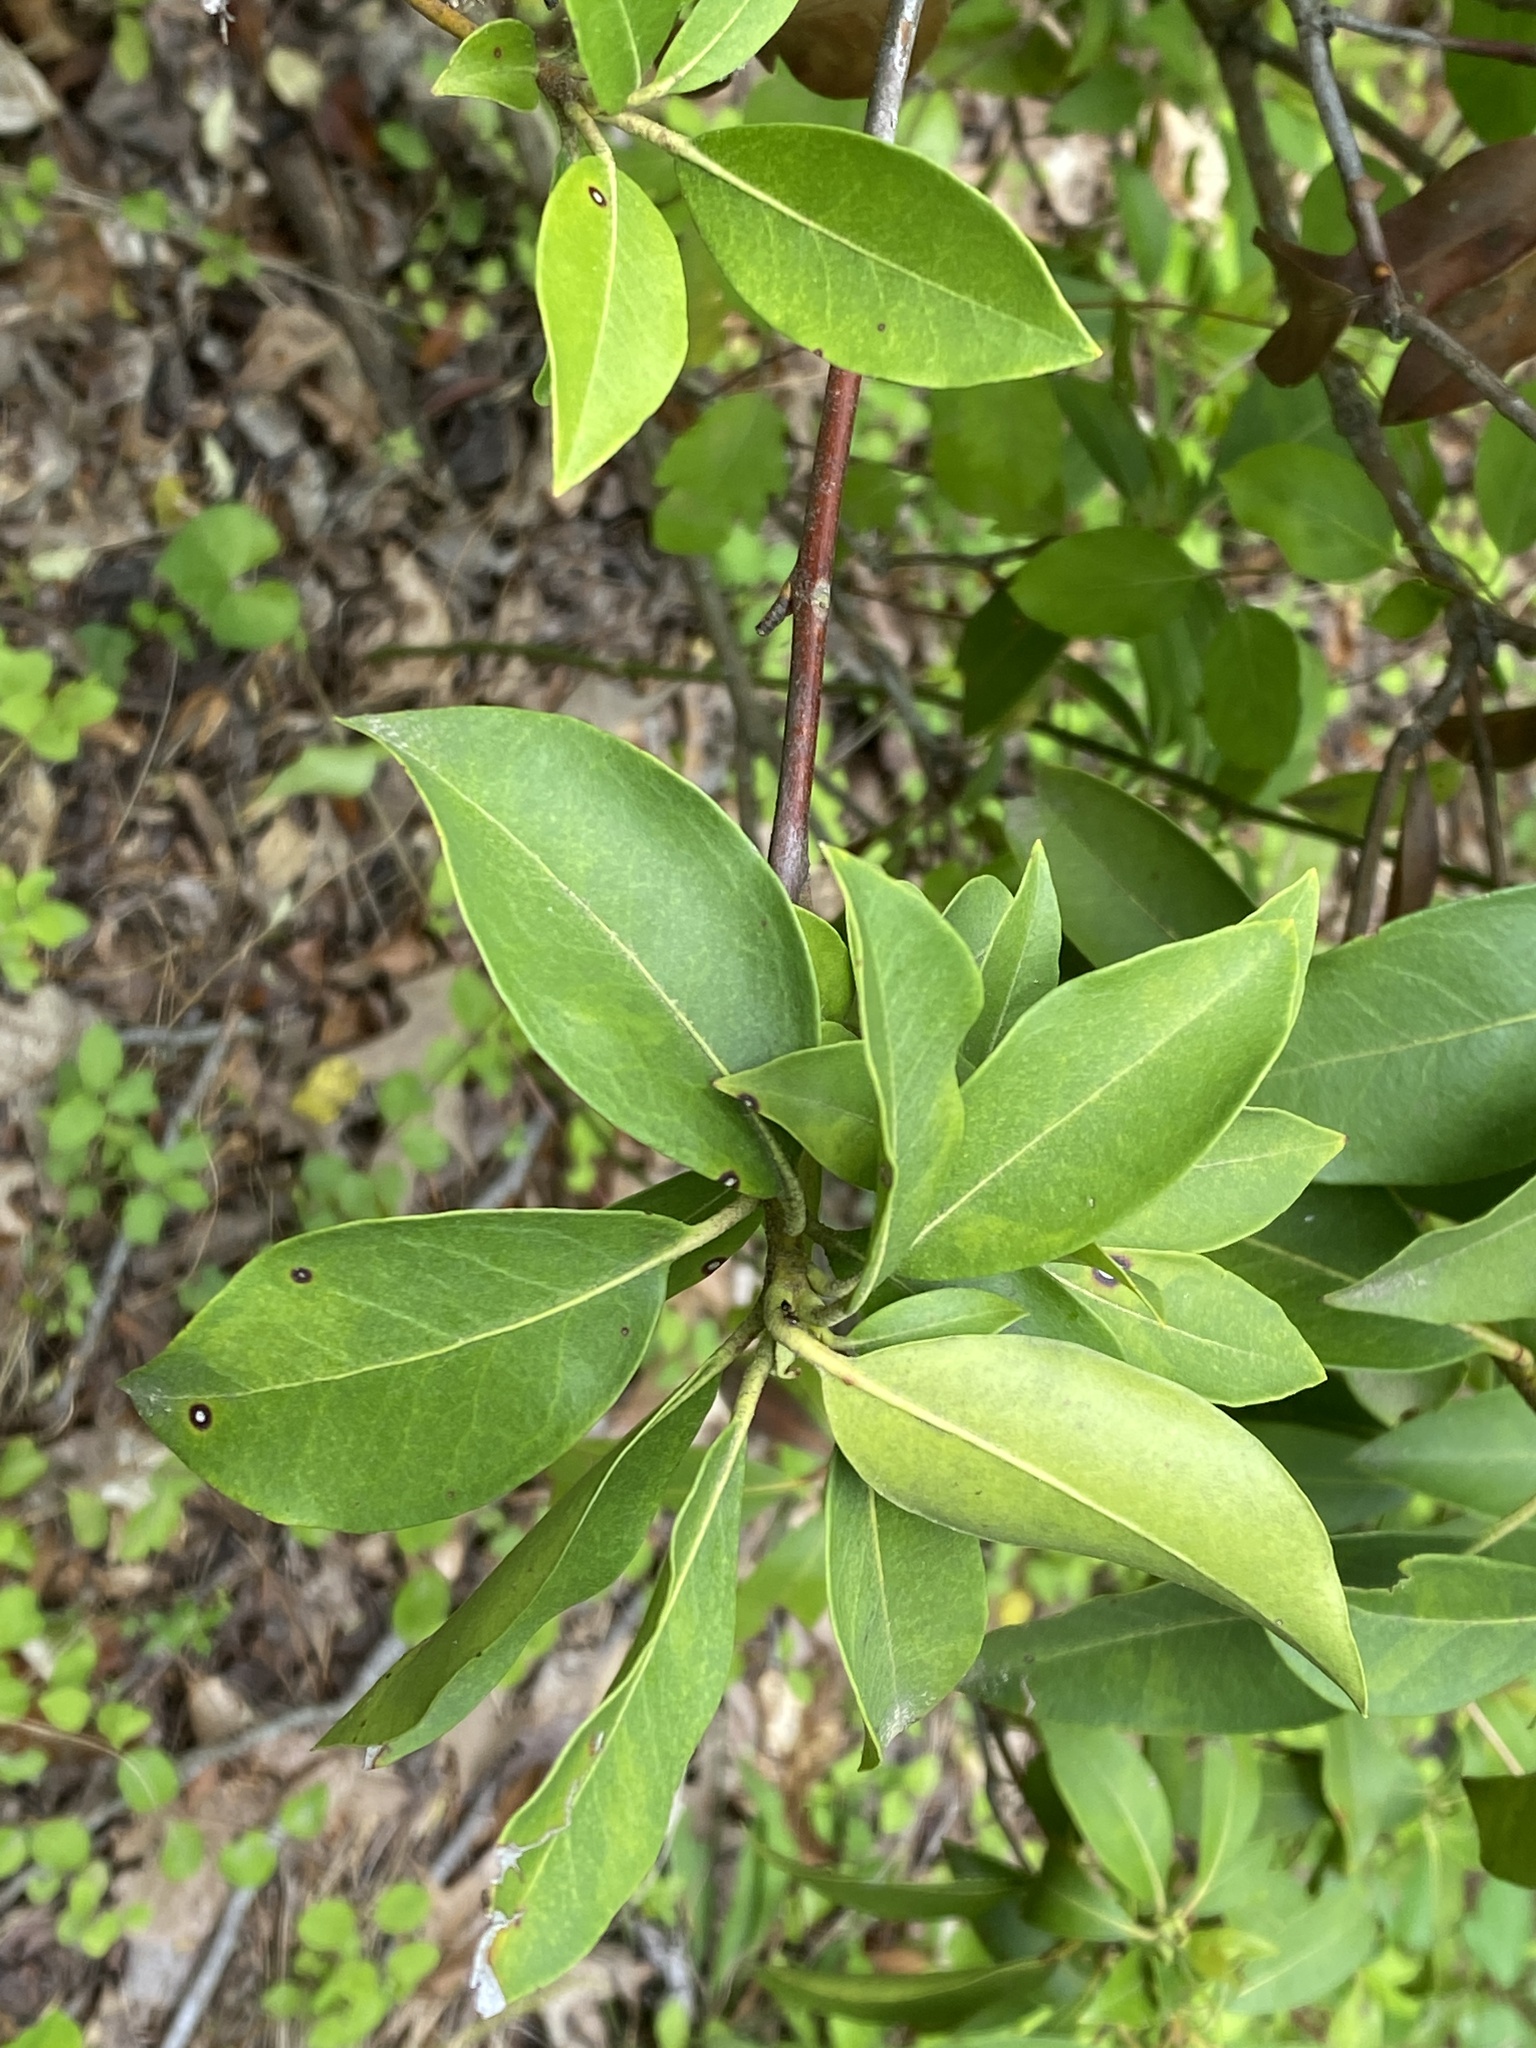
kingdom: Plantae
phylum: Tracheophyta
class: Magnoliopsida
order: Ericales
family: Ericaceae
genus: Kalmia
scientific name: Kalmia latifolia
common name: Mountain-laurel
